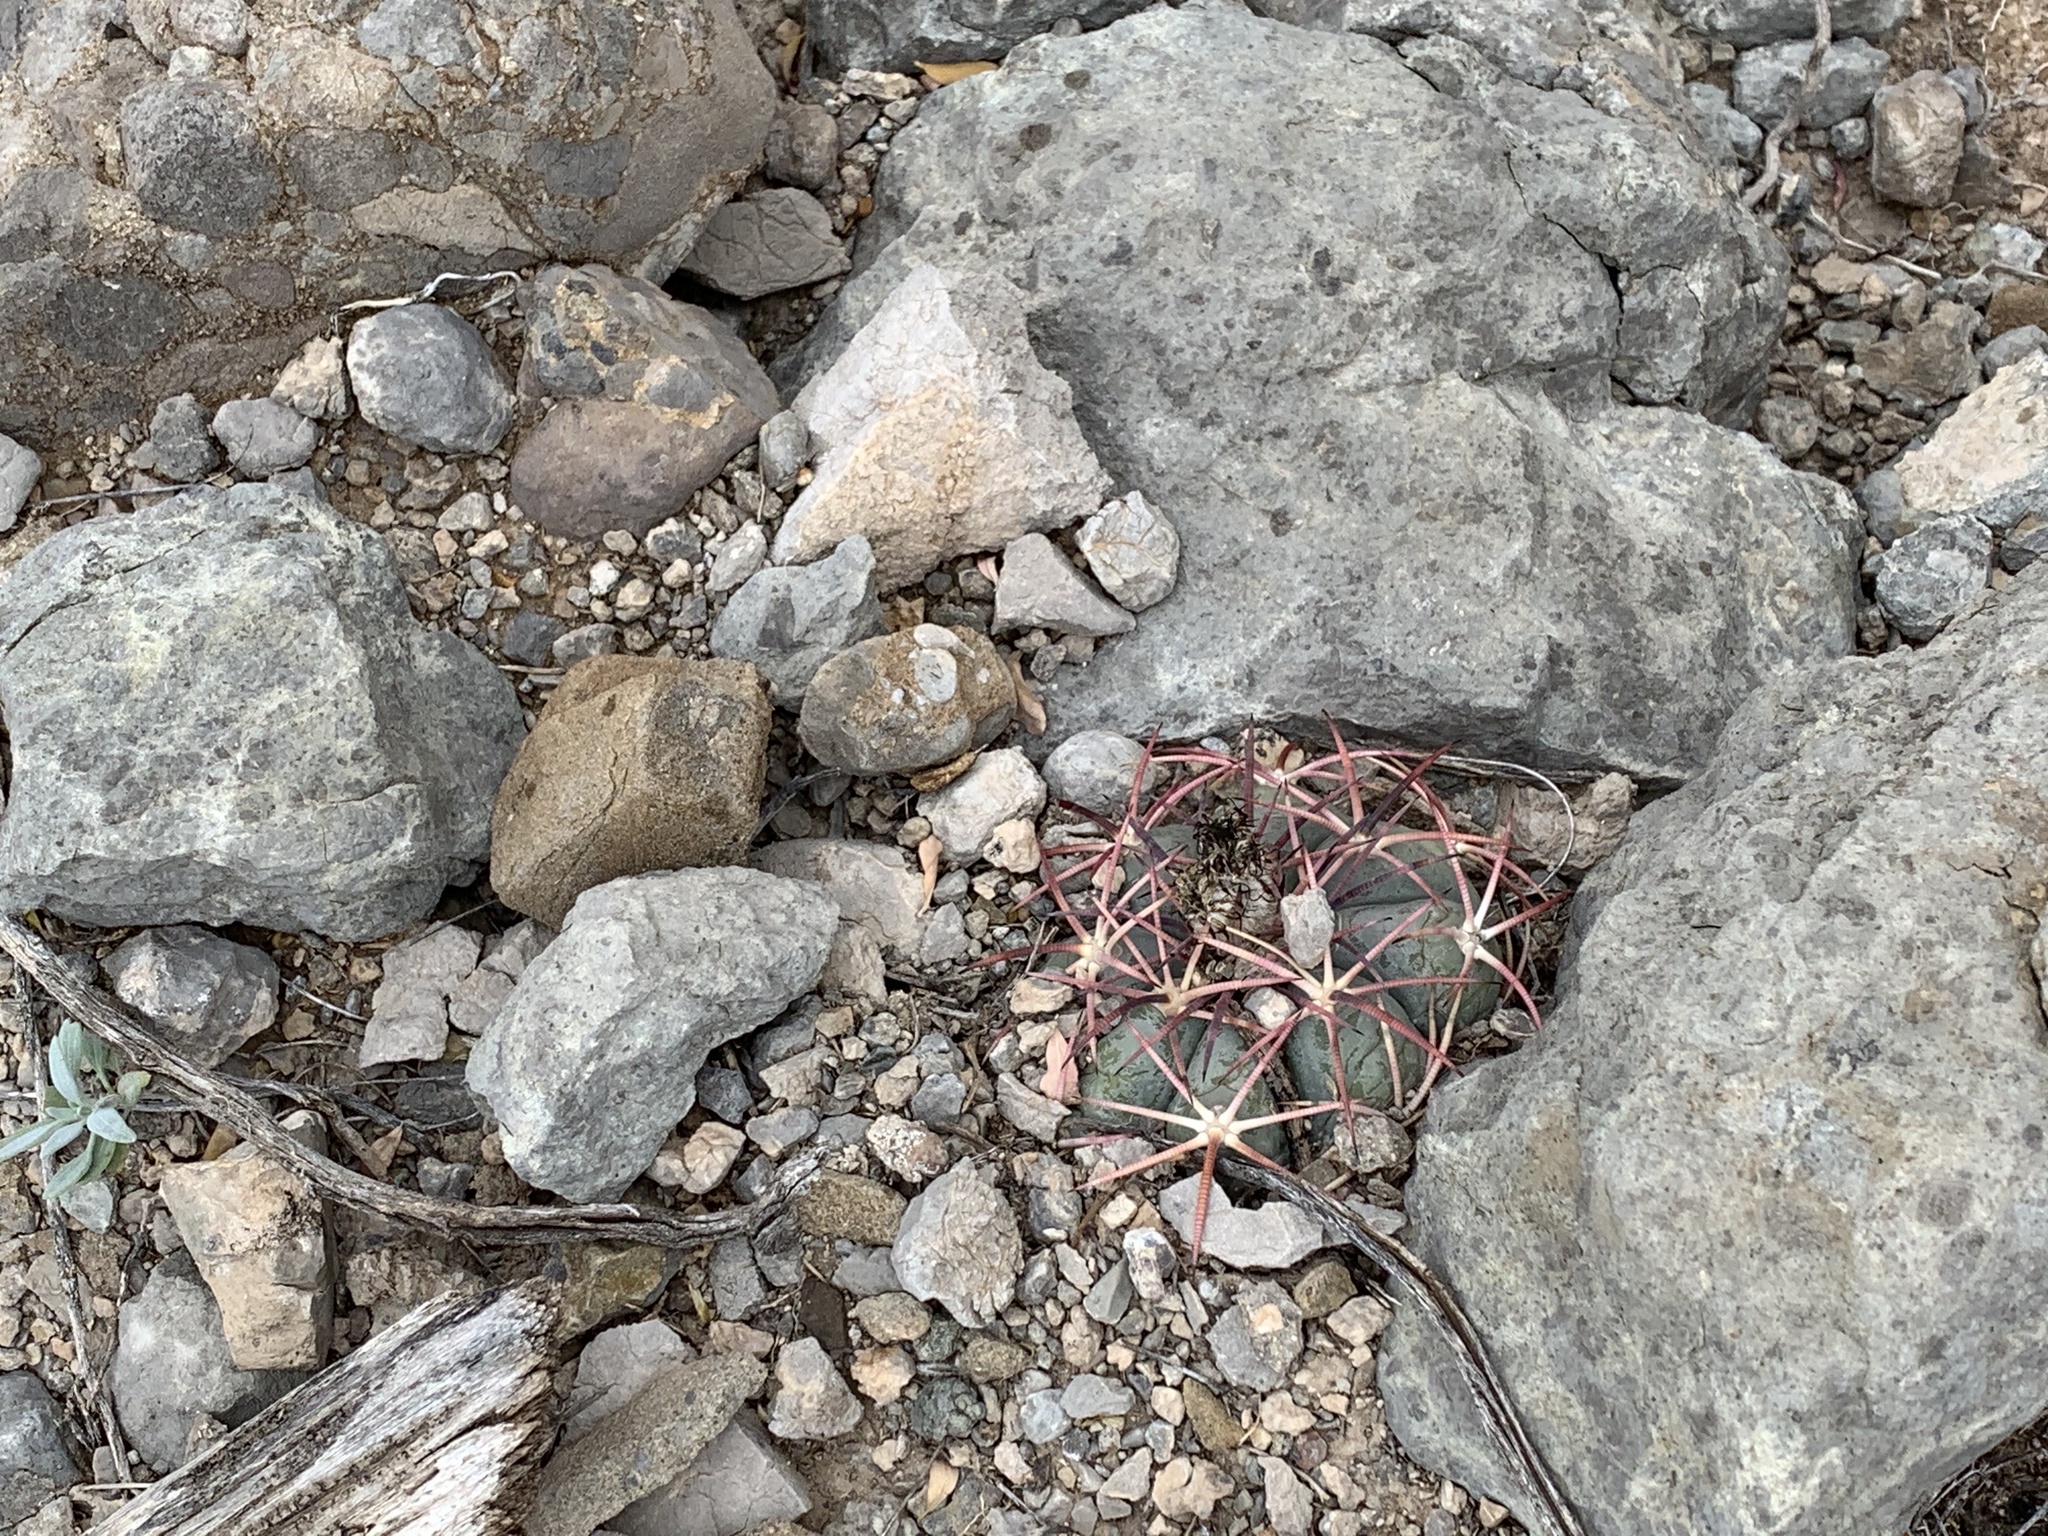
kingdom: Plantae
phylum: Tracheophyta
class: Magnoliopsida
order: Caryophyllales
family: Cactaceae
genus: Echinocactus
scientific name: Echinocactus horizonthalonius
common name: Devilshead
